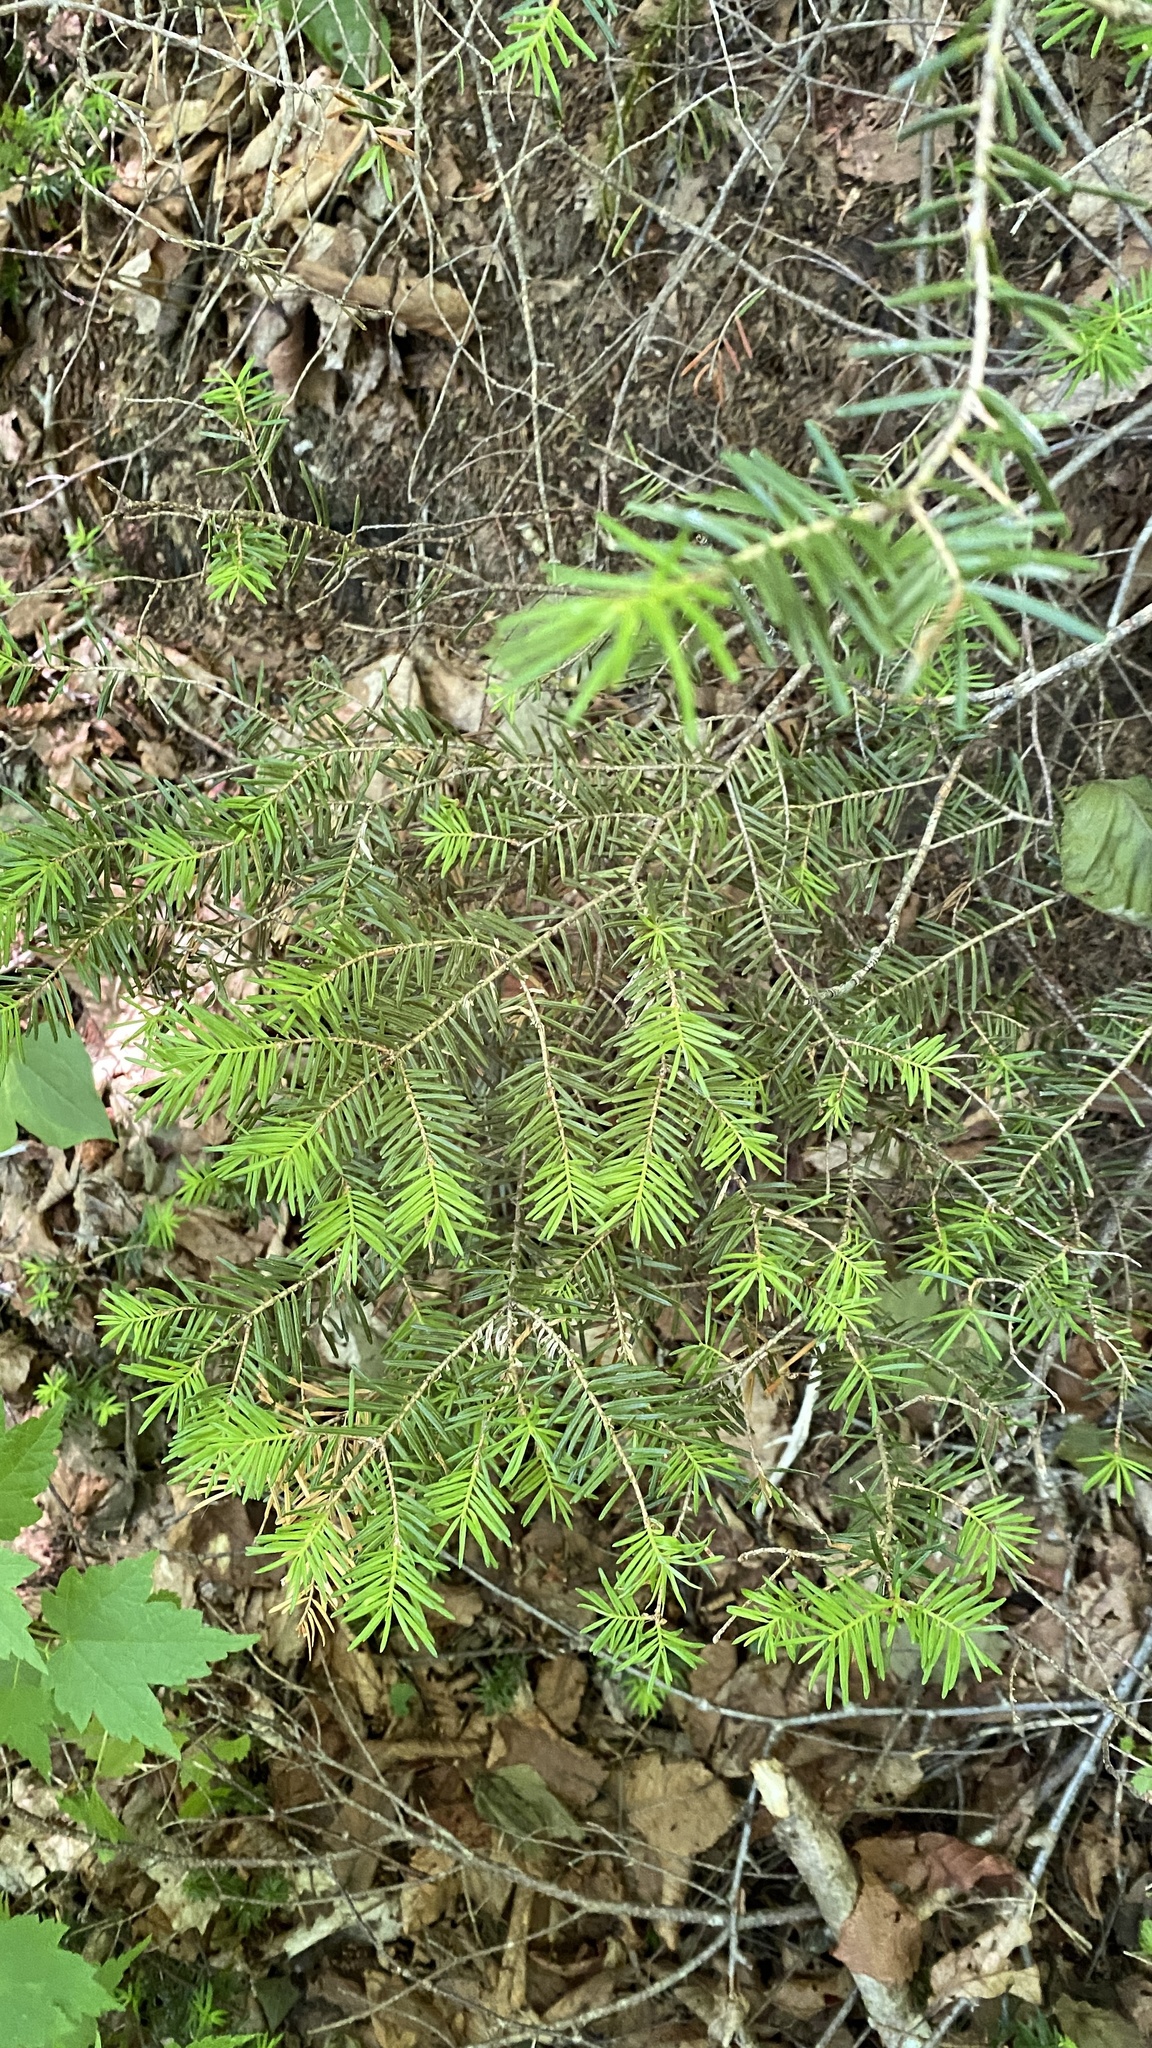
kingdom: Plantae
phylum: Tracheophyta
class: Pinopsida
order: Pinales
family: Pinaceae
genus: Abies
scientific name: Abies balsamea
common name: Balsam fir
